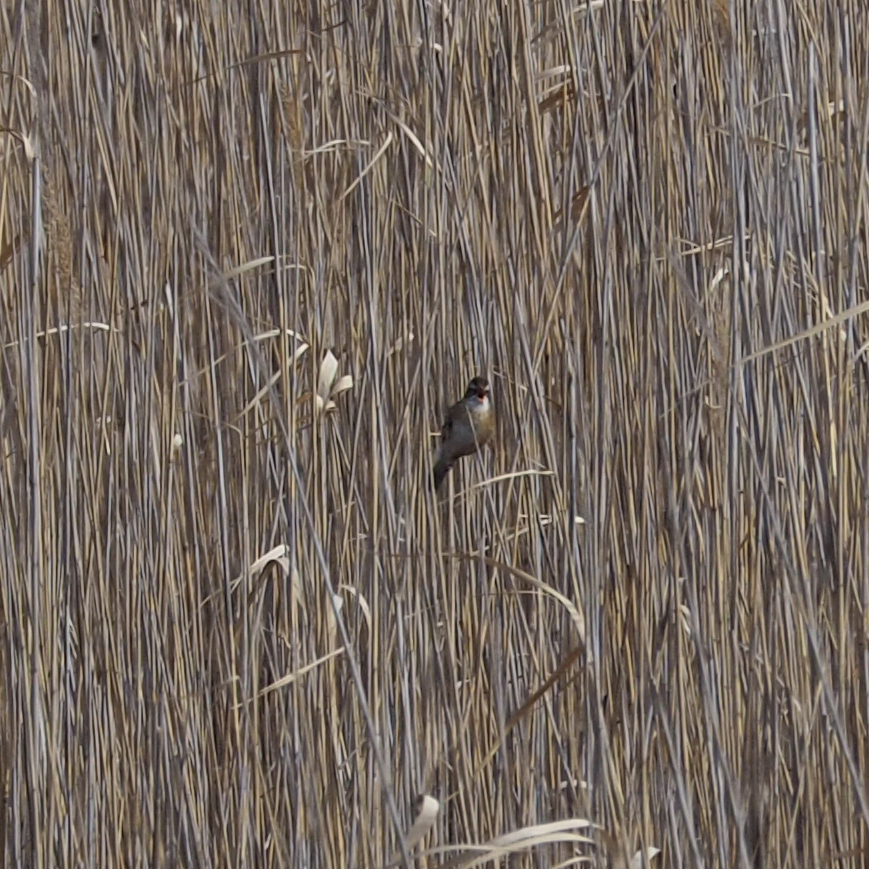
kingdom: Animalia
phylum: Chordata
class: Aves
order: Passeriformes
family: Acrocephalidae
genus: Acrocephalus
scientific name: Acrocephalus melanopogon
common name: Moustached warbler
